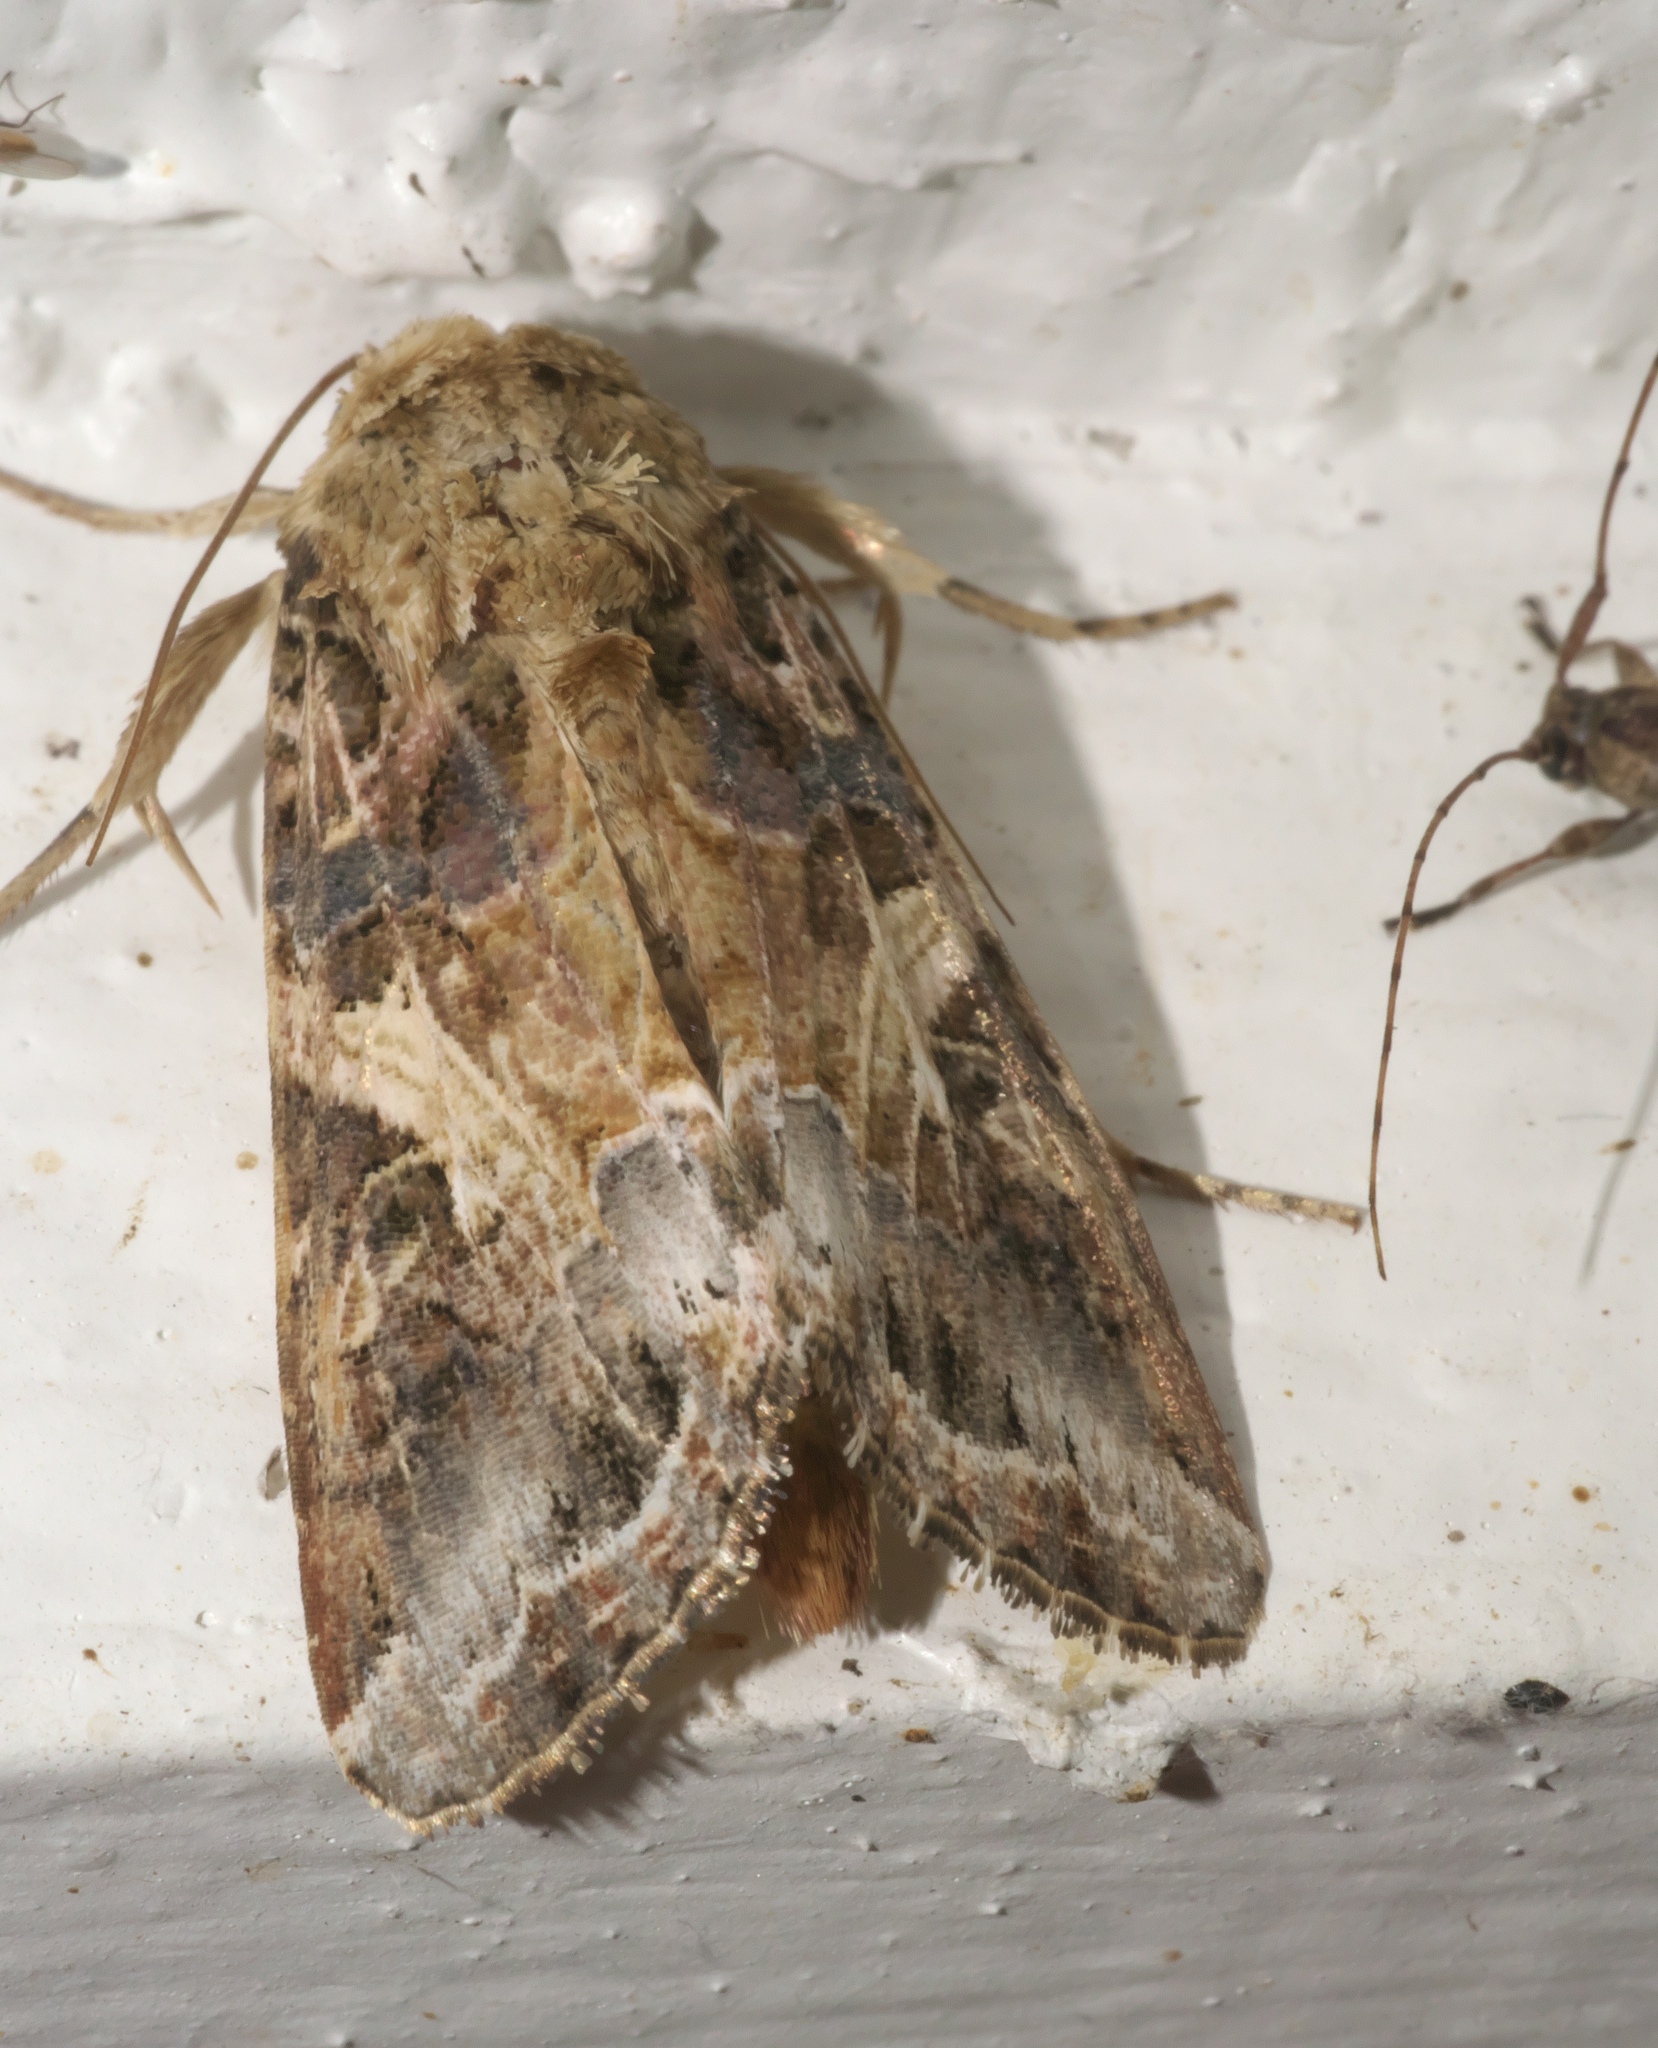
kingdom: Animalia
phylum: Arthropoda
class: Insecta
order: Lepidoptera
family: Noctuidae
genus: Spodoptera
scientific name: Spodoptera ornithogalli
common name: Yellow-striped armyworm
